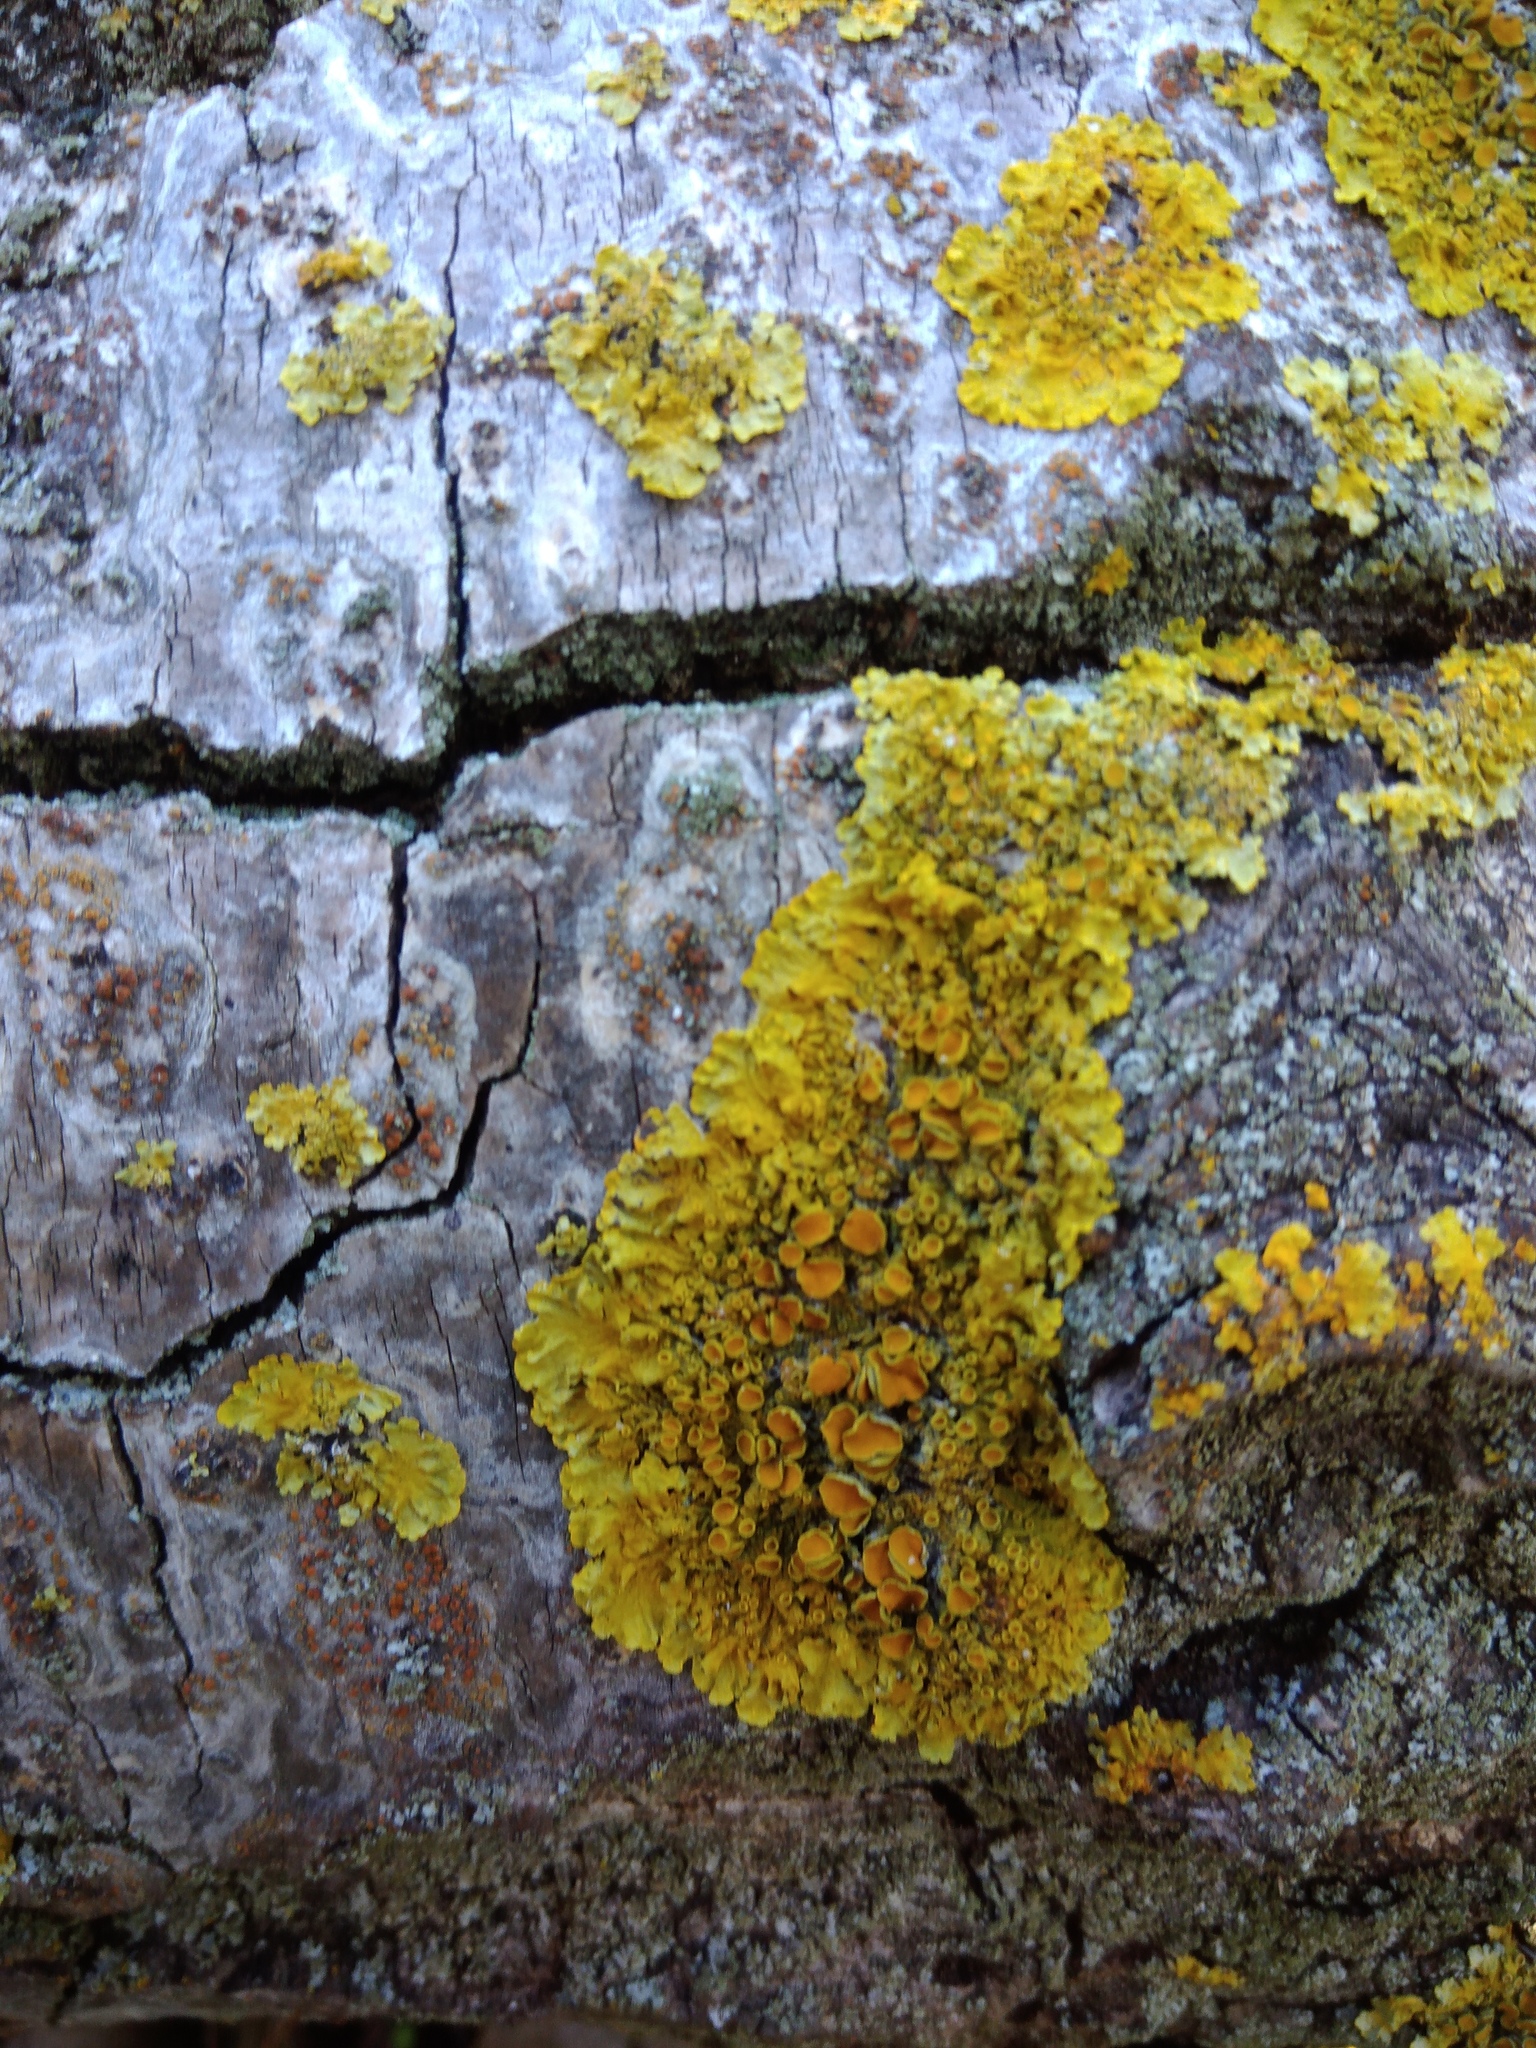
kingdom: Fungi
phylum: Ascomycota
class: Lecanoromycetes
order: Teloschistales
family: Teloschistaceae
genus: Xanthoria
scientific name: Xanthoria parietina
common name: Common orange lichen
